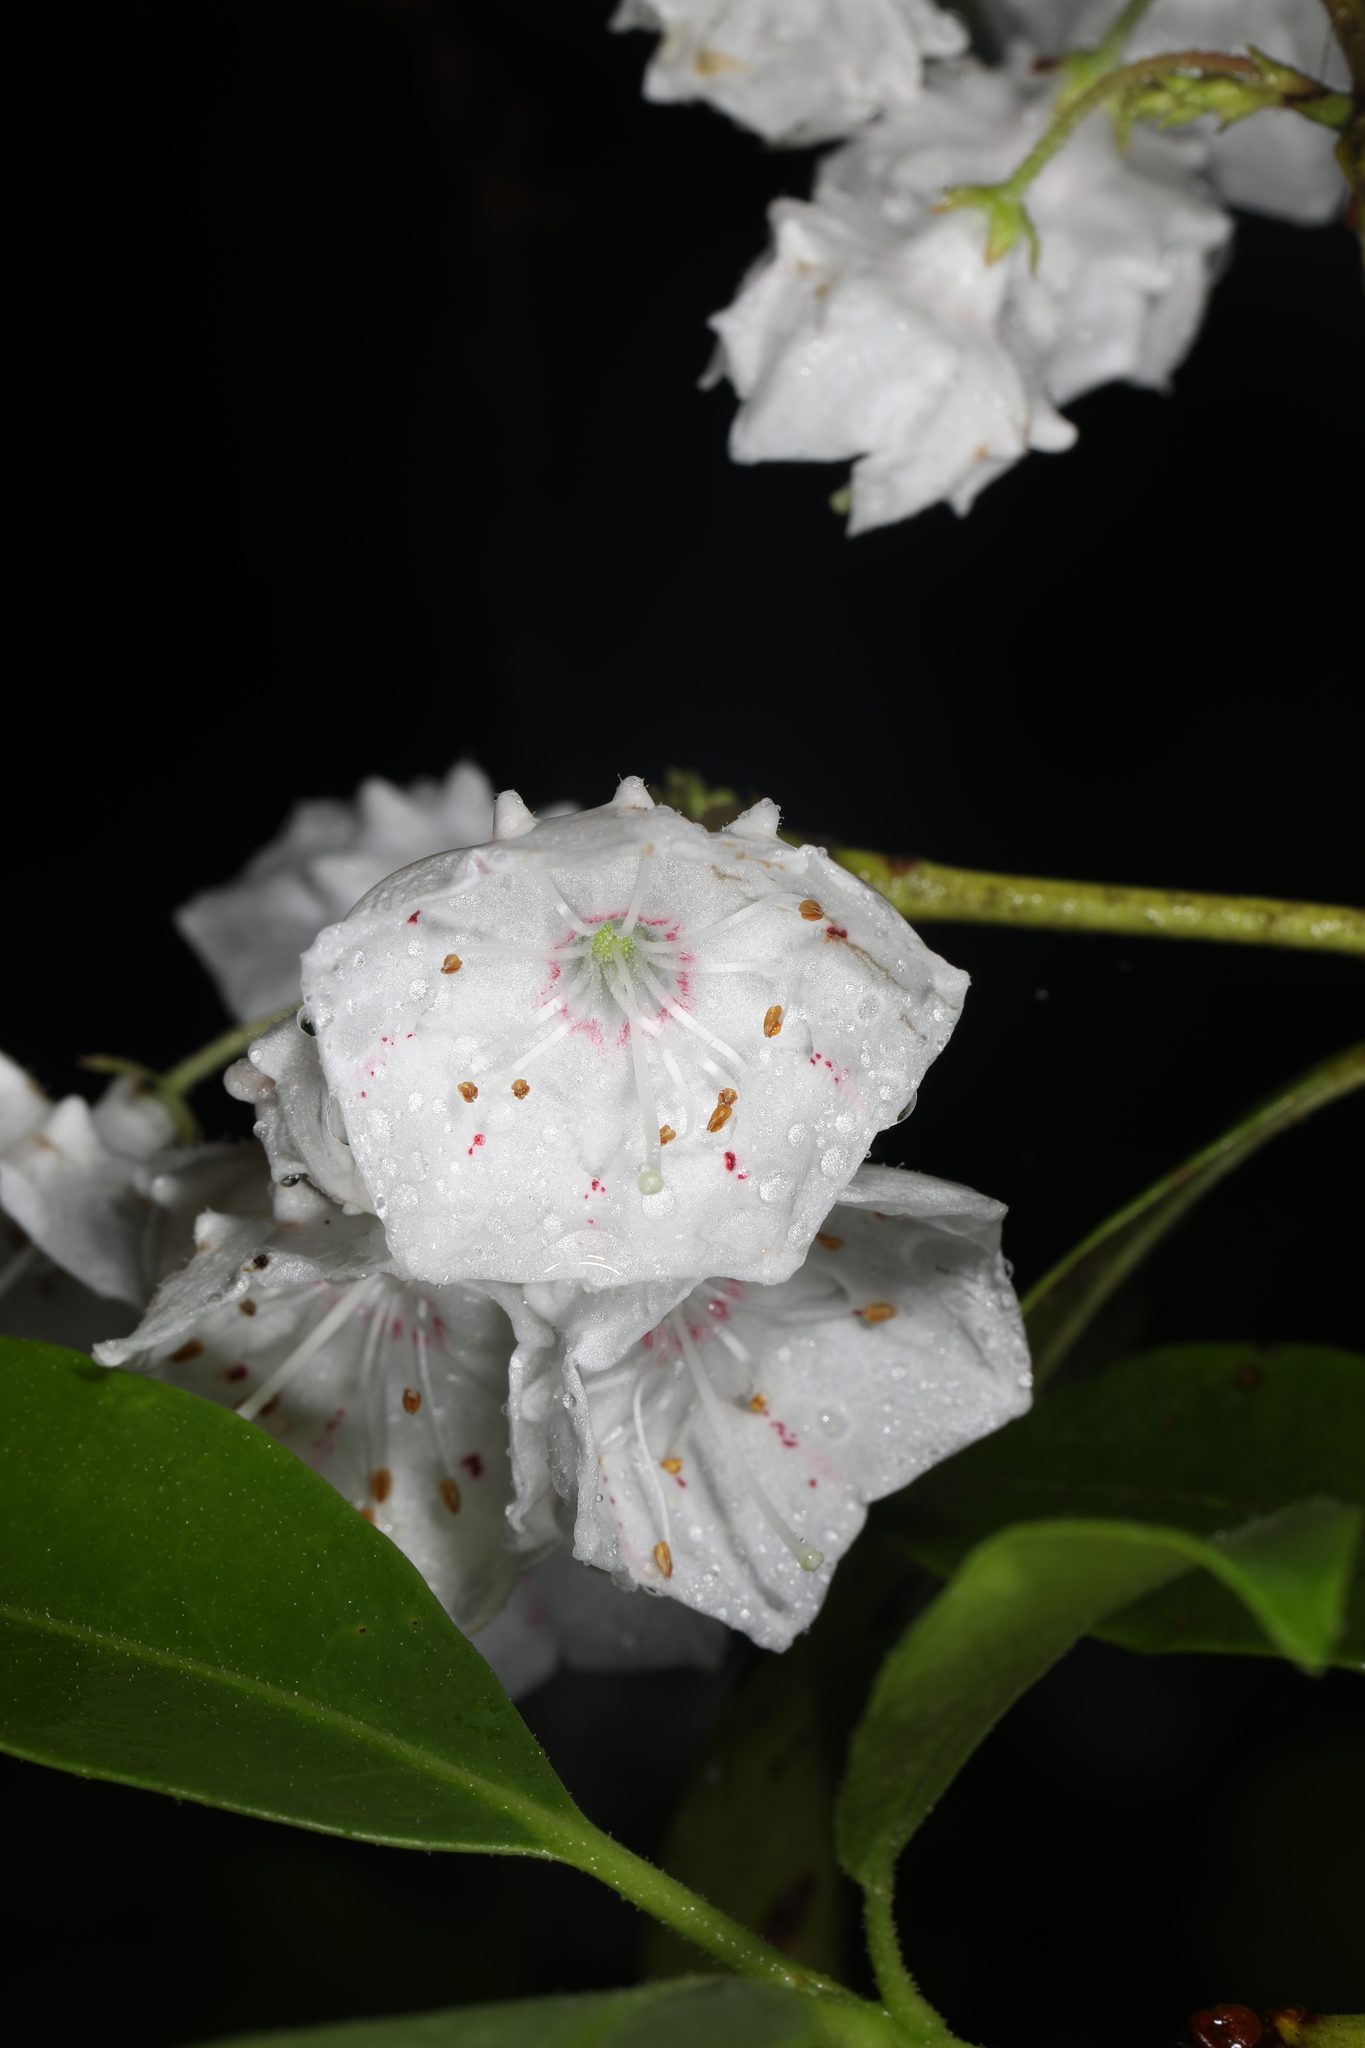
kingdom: Plantae
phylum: Tracheophyta
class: Magnoliopsida
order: Ericales
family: Ericaceae
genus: Kalmia
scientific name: Kalmia latifolia
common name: Mountain-laurel
